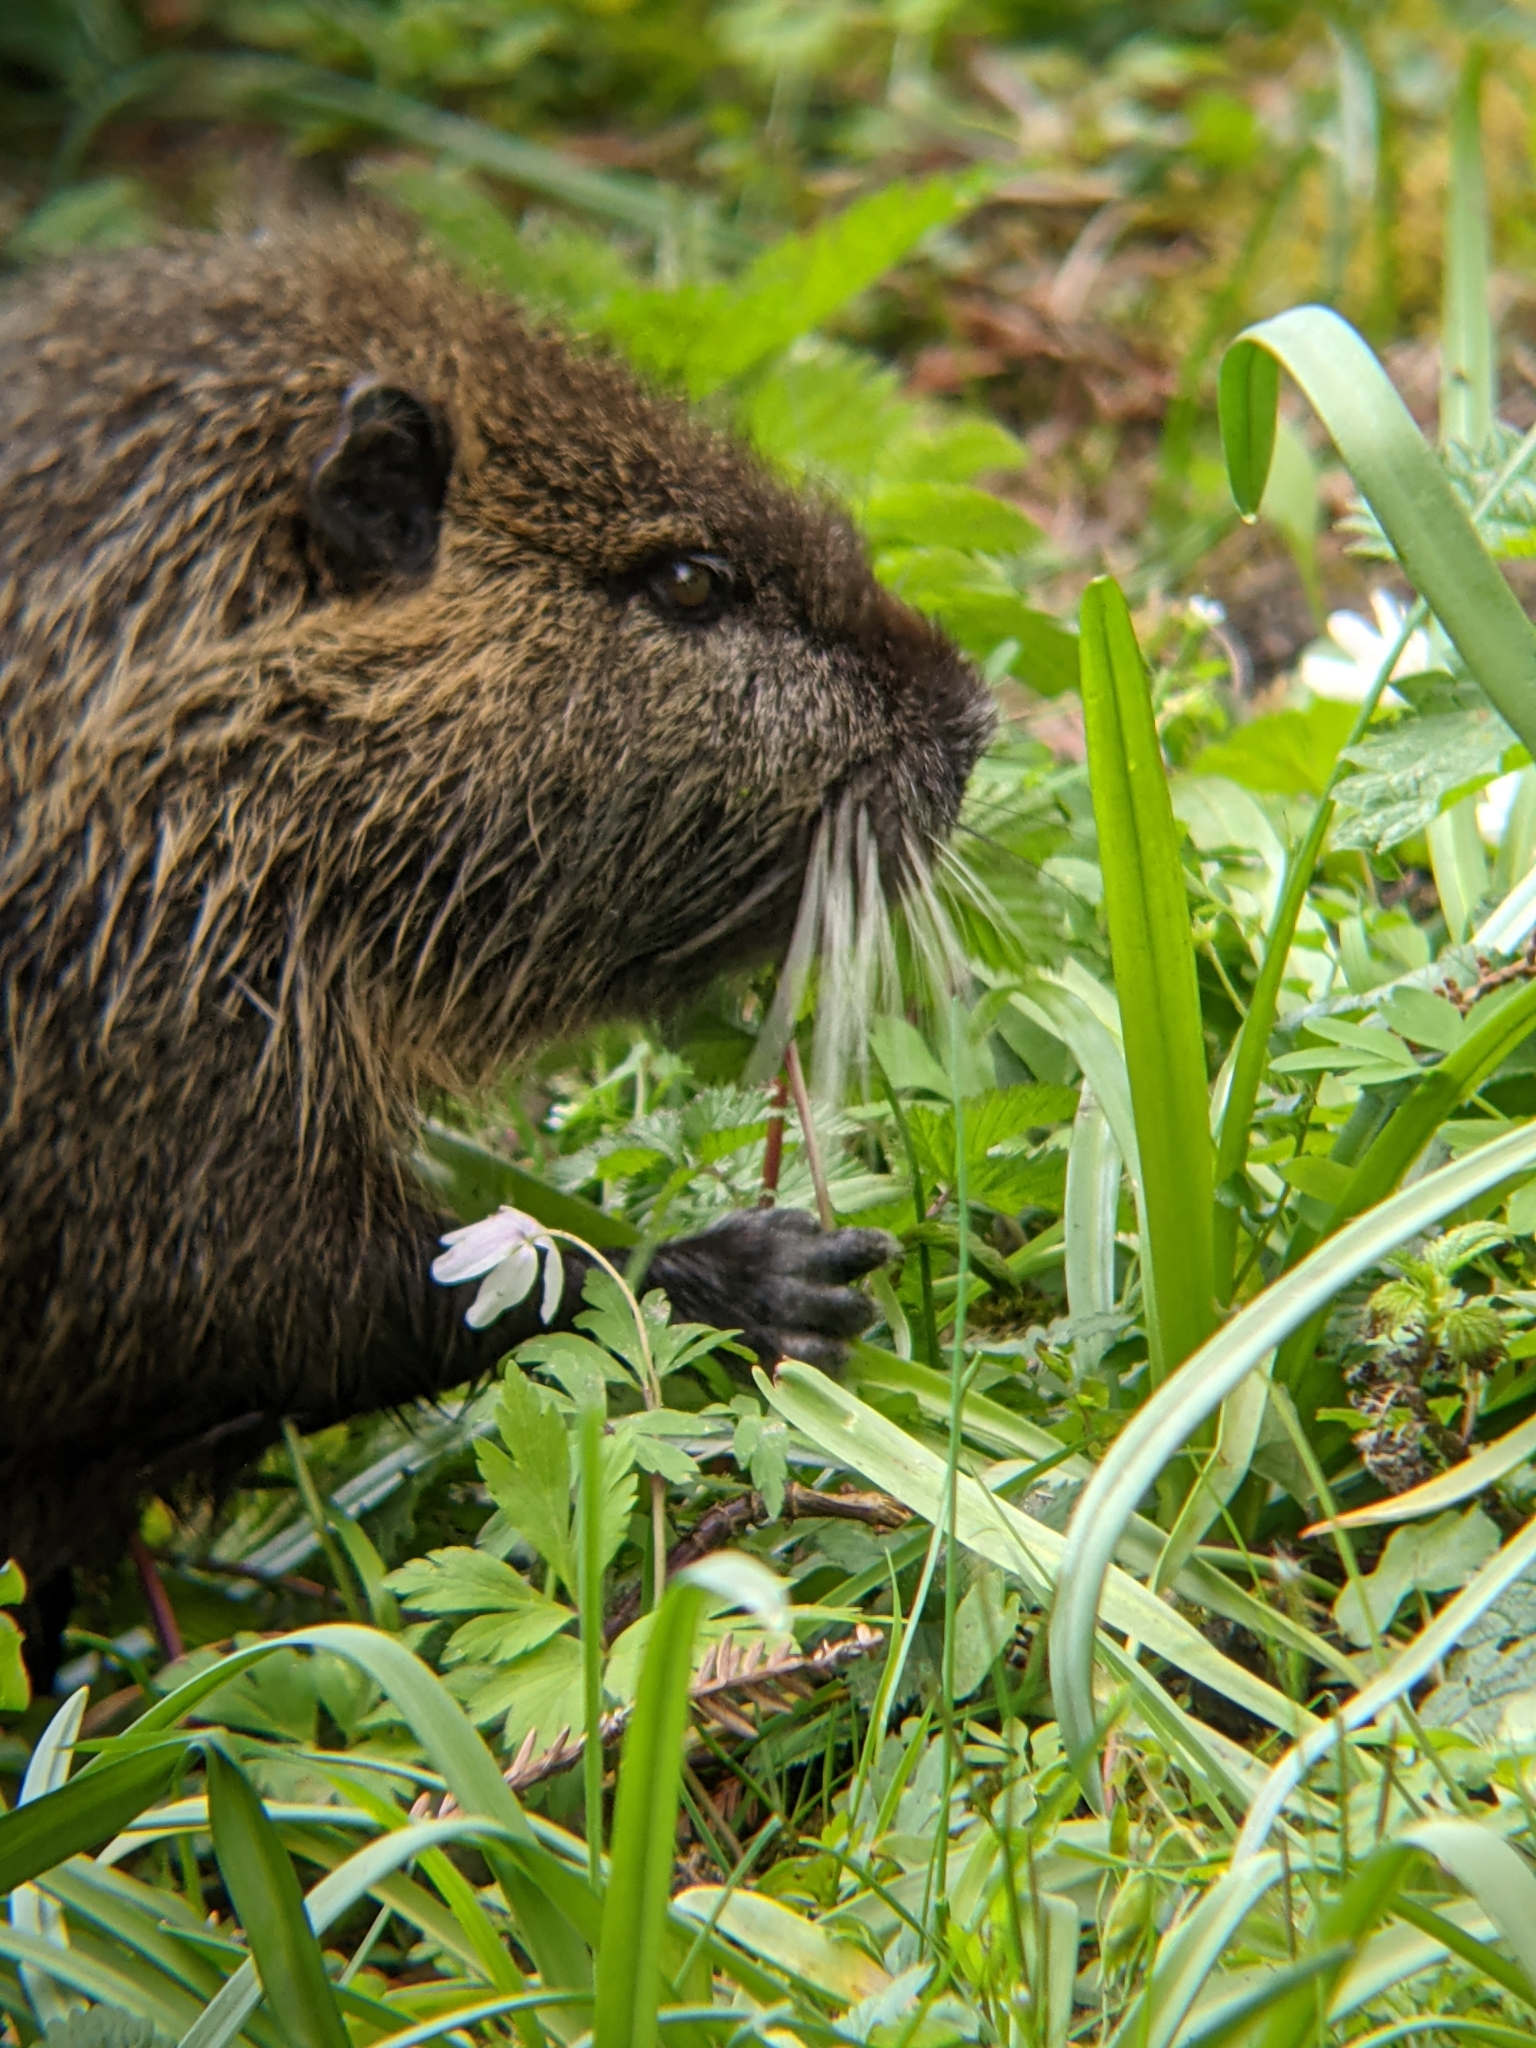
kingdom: Animalia
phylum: Chordata
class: Mammalia
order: Rodentia
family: Myocastoridae
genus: Myocastor
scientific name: Myocastor coypus
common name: Coypu
